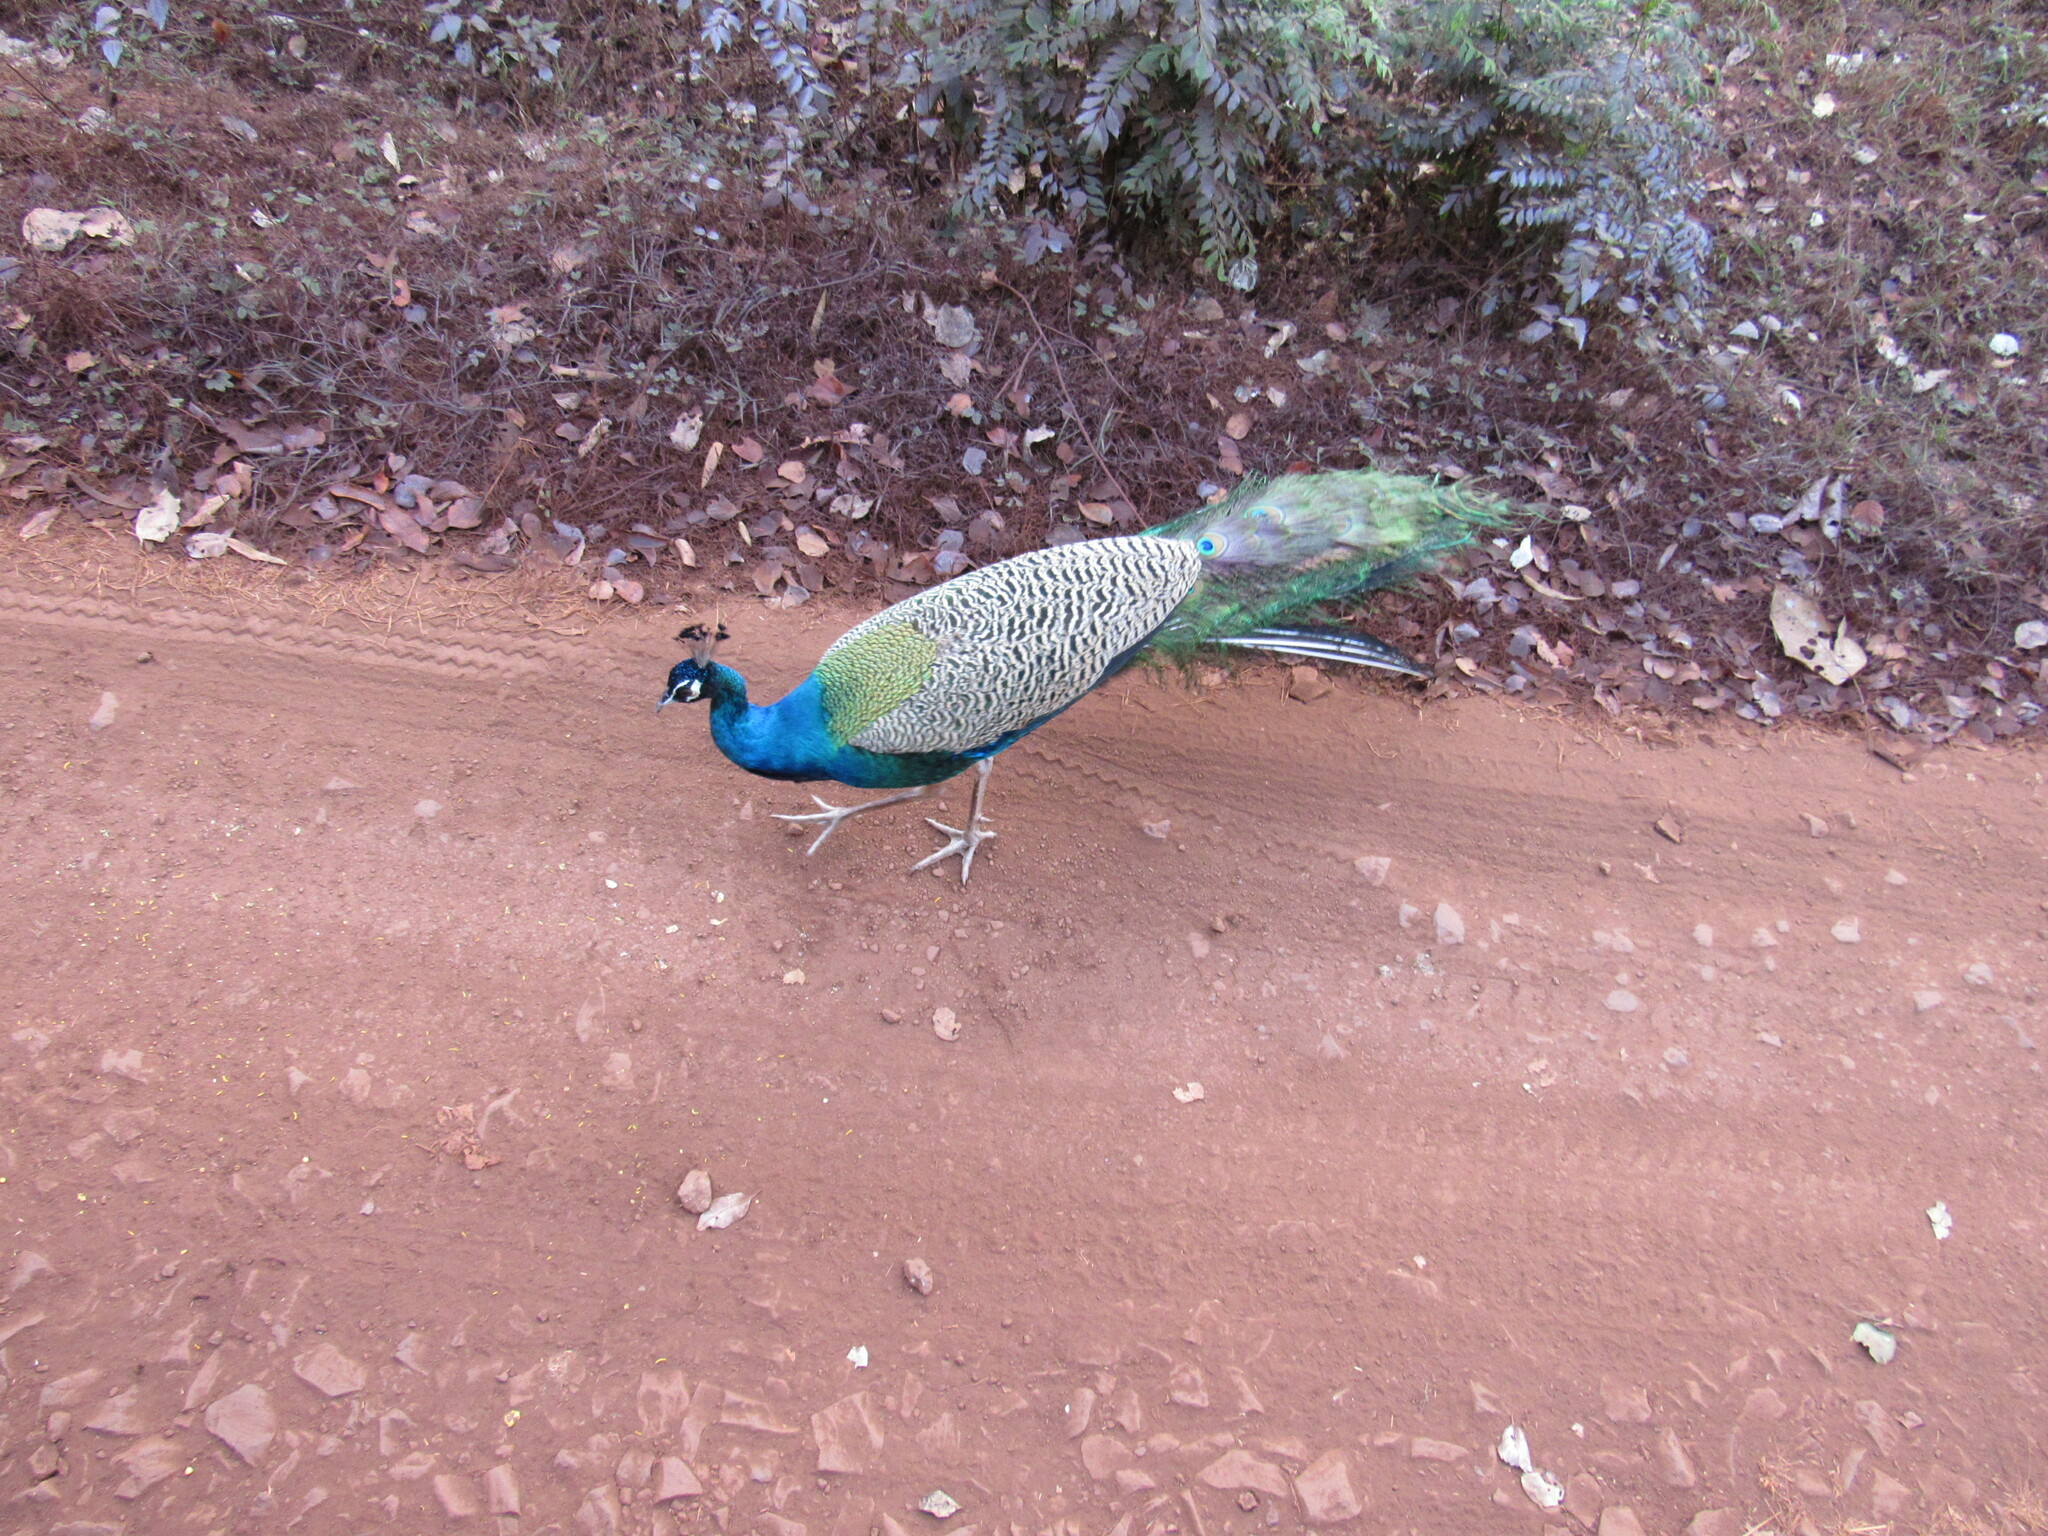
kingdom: Animalia
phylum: Chordata
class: Aves
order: Galliformes
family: Phasianidae
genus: Pavo
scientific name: Pavo cristatus
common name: Indian peafowl
